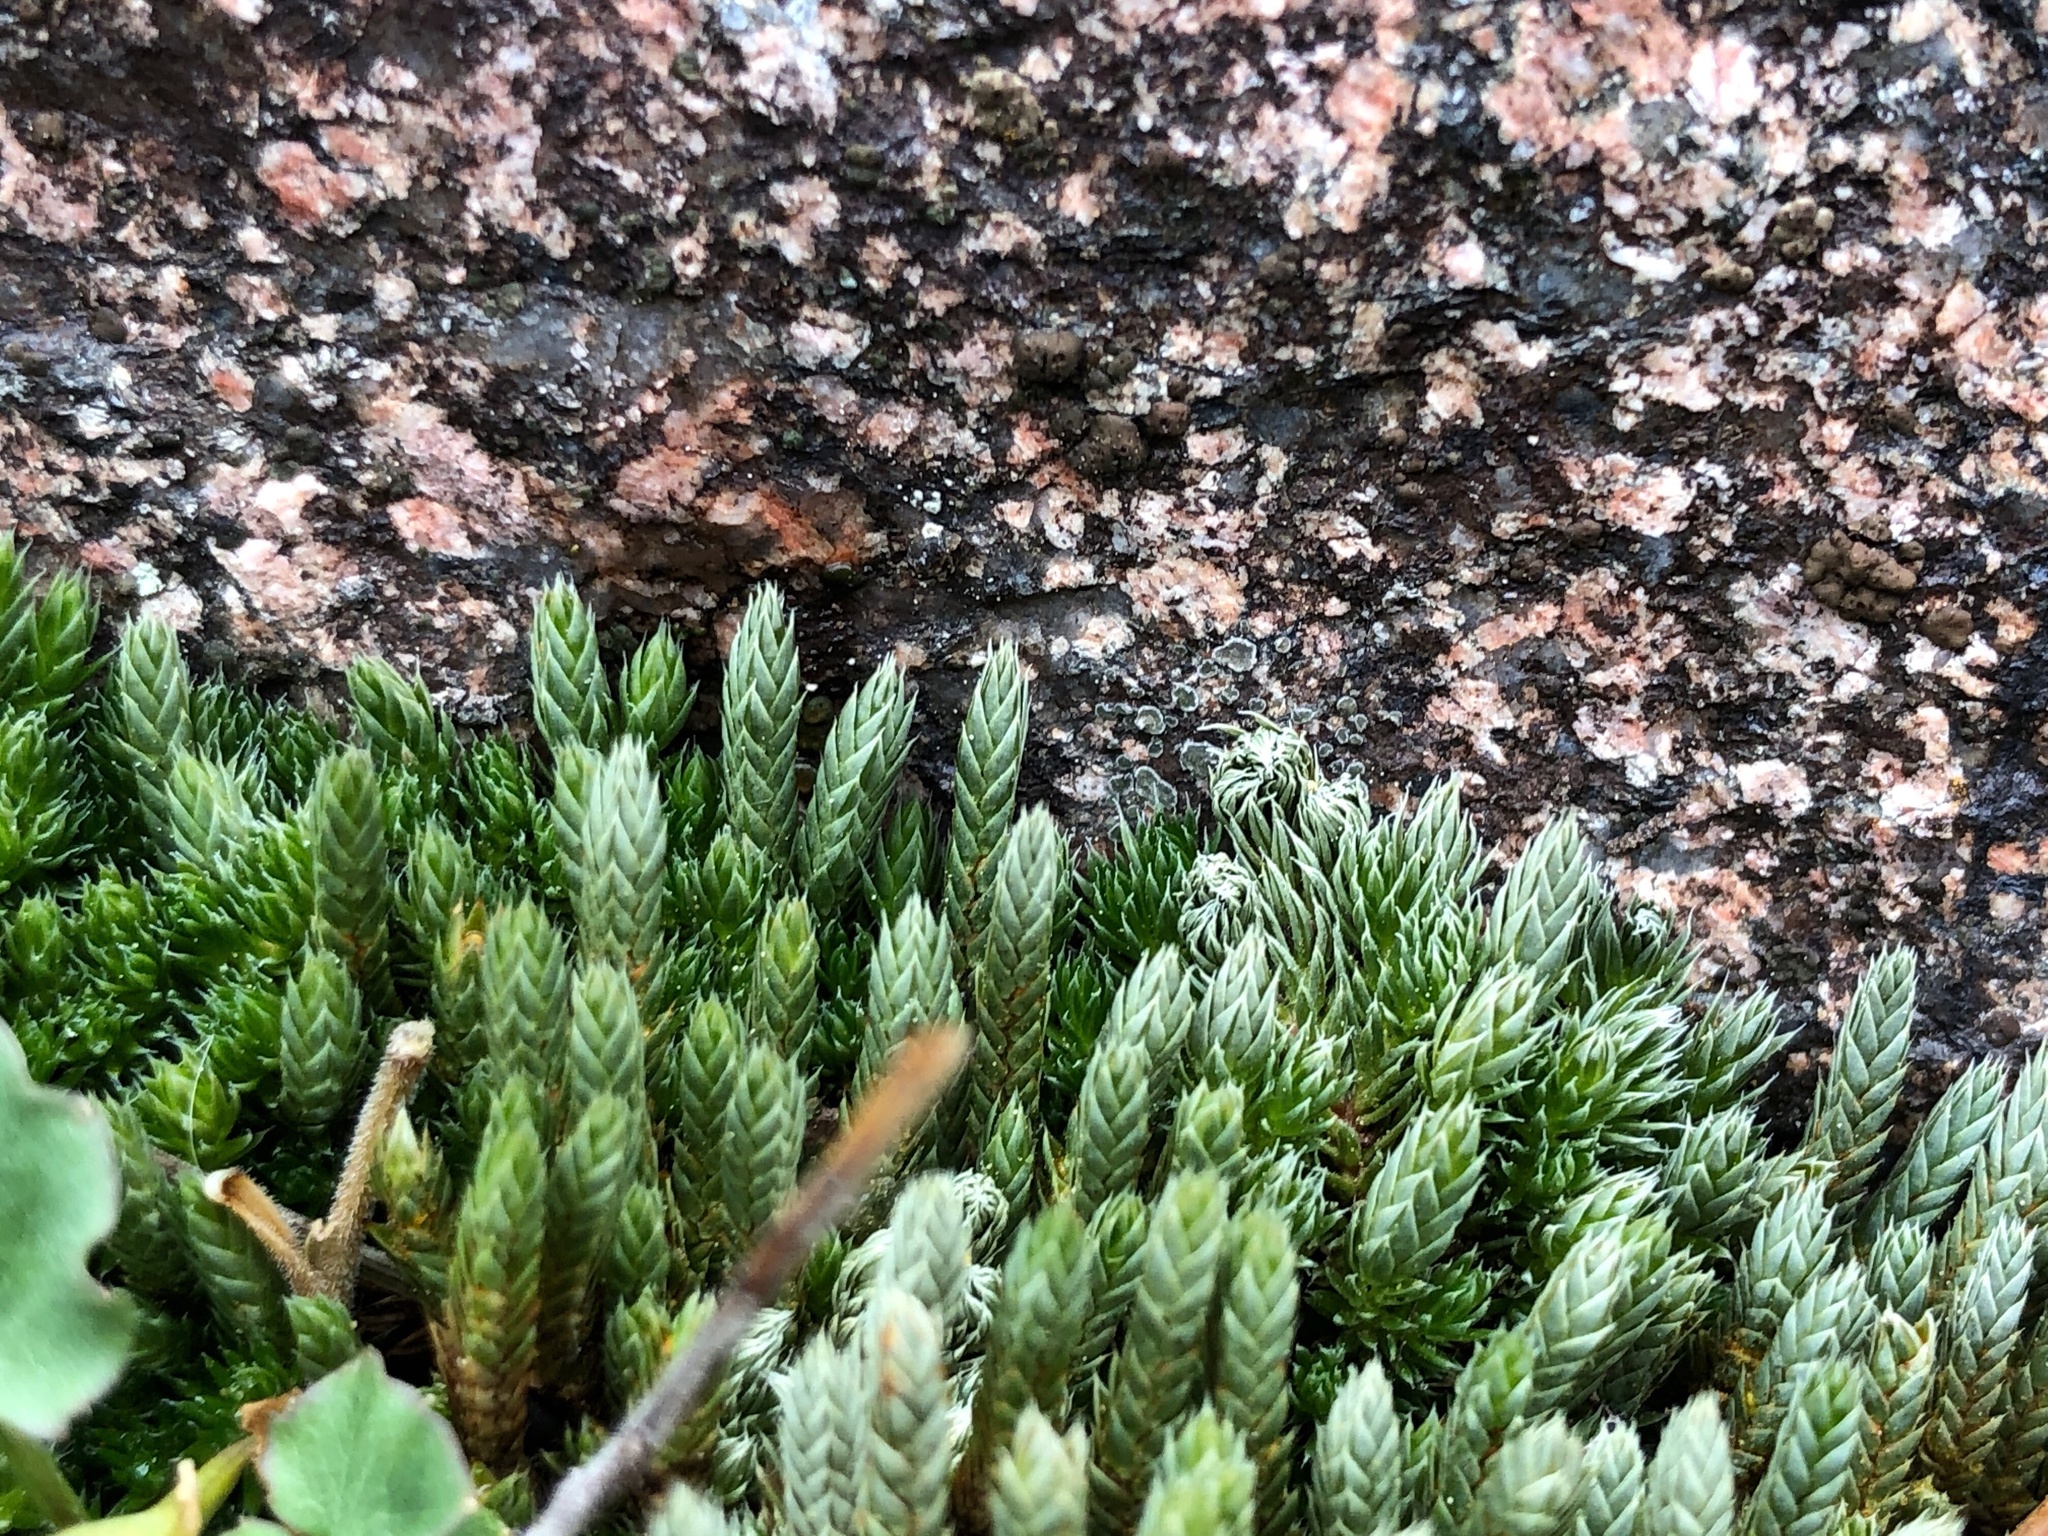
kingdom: Plantae
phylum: Tracheophyta
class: Lycopodiopsida
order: Selaginellales
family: Selaginellaceae
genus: Selaginella
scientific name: Selaginella densa
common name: Mountain spike-moss
